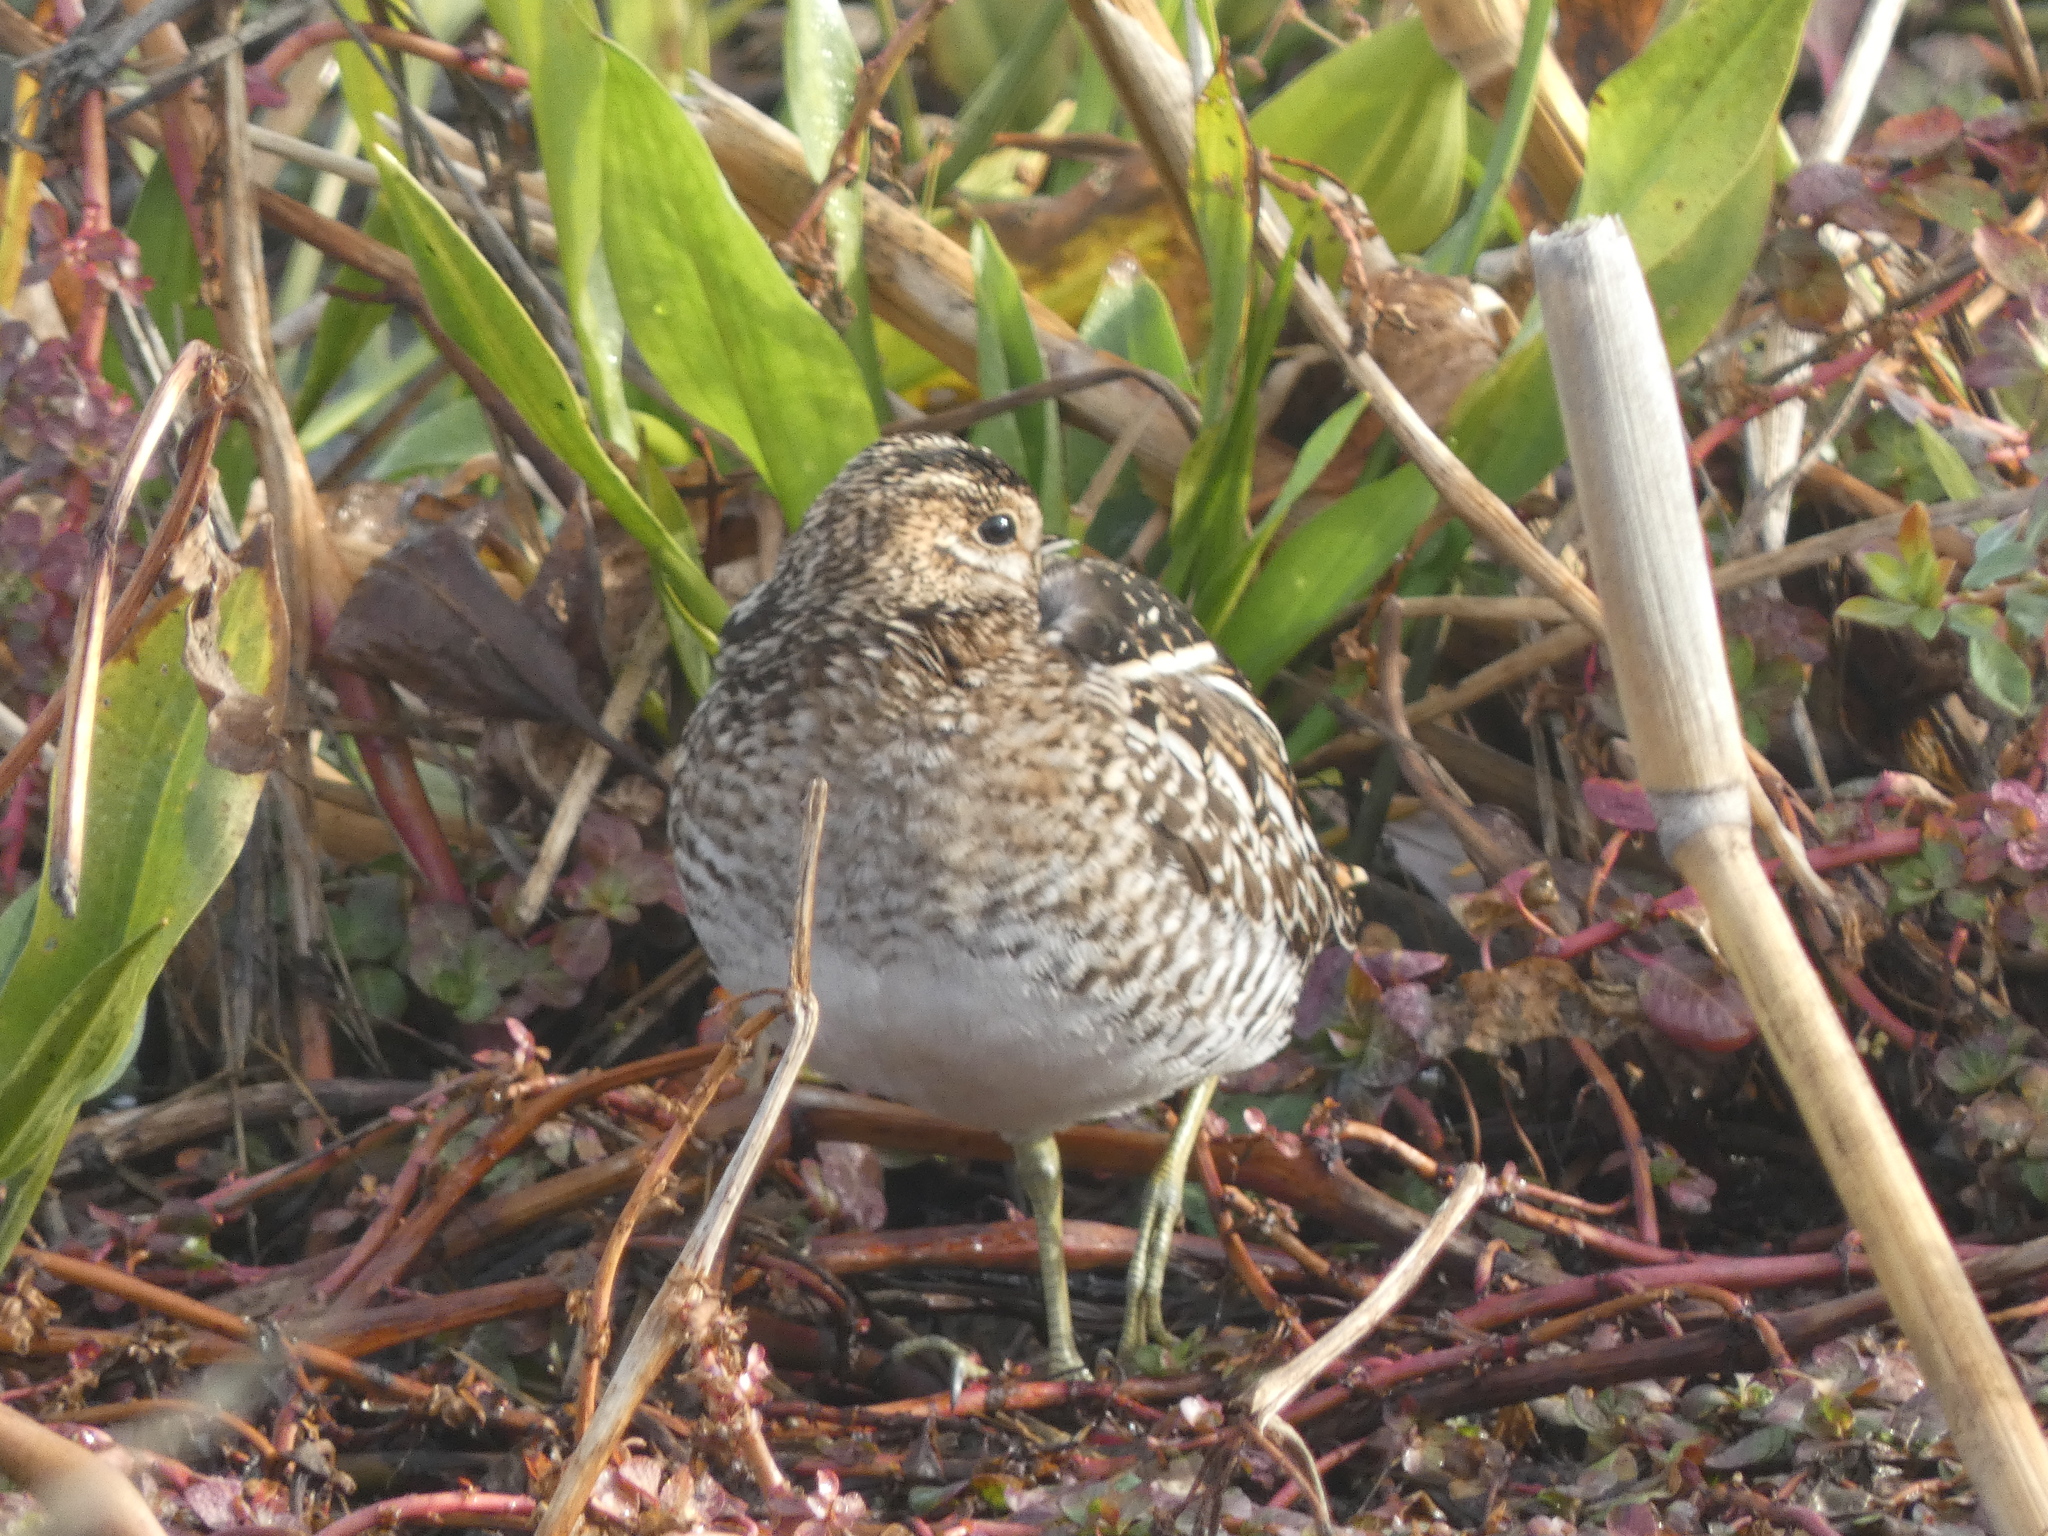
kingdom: Animalia
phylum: Chordata
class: Aves
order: Charadriiformes
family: Scolopacidae
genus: Gallinago
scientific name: Gallinago delicata
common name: Wilson's snipe
